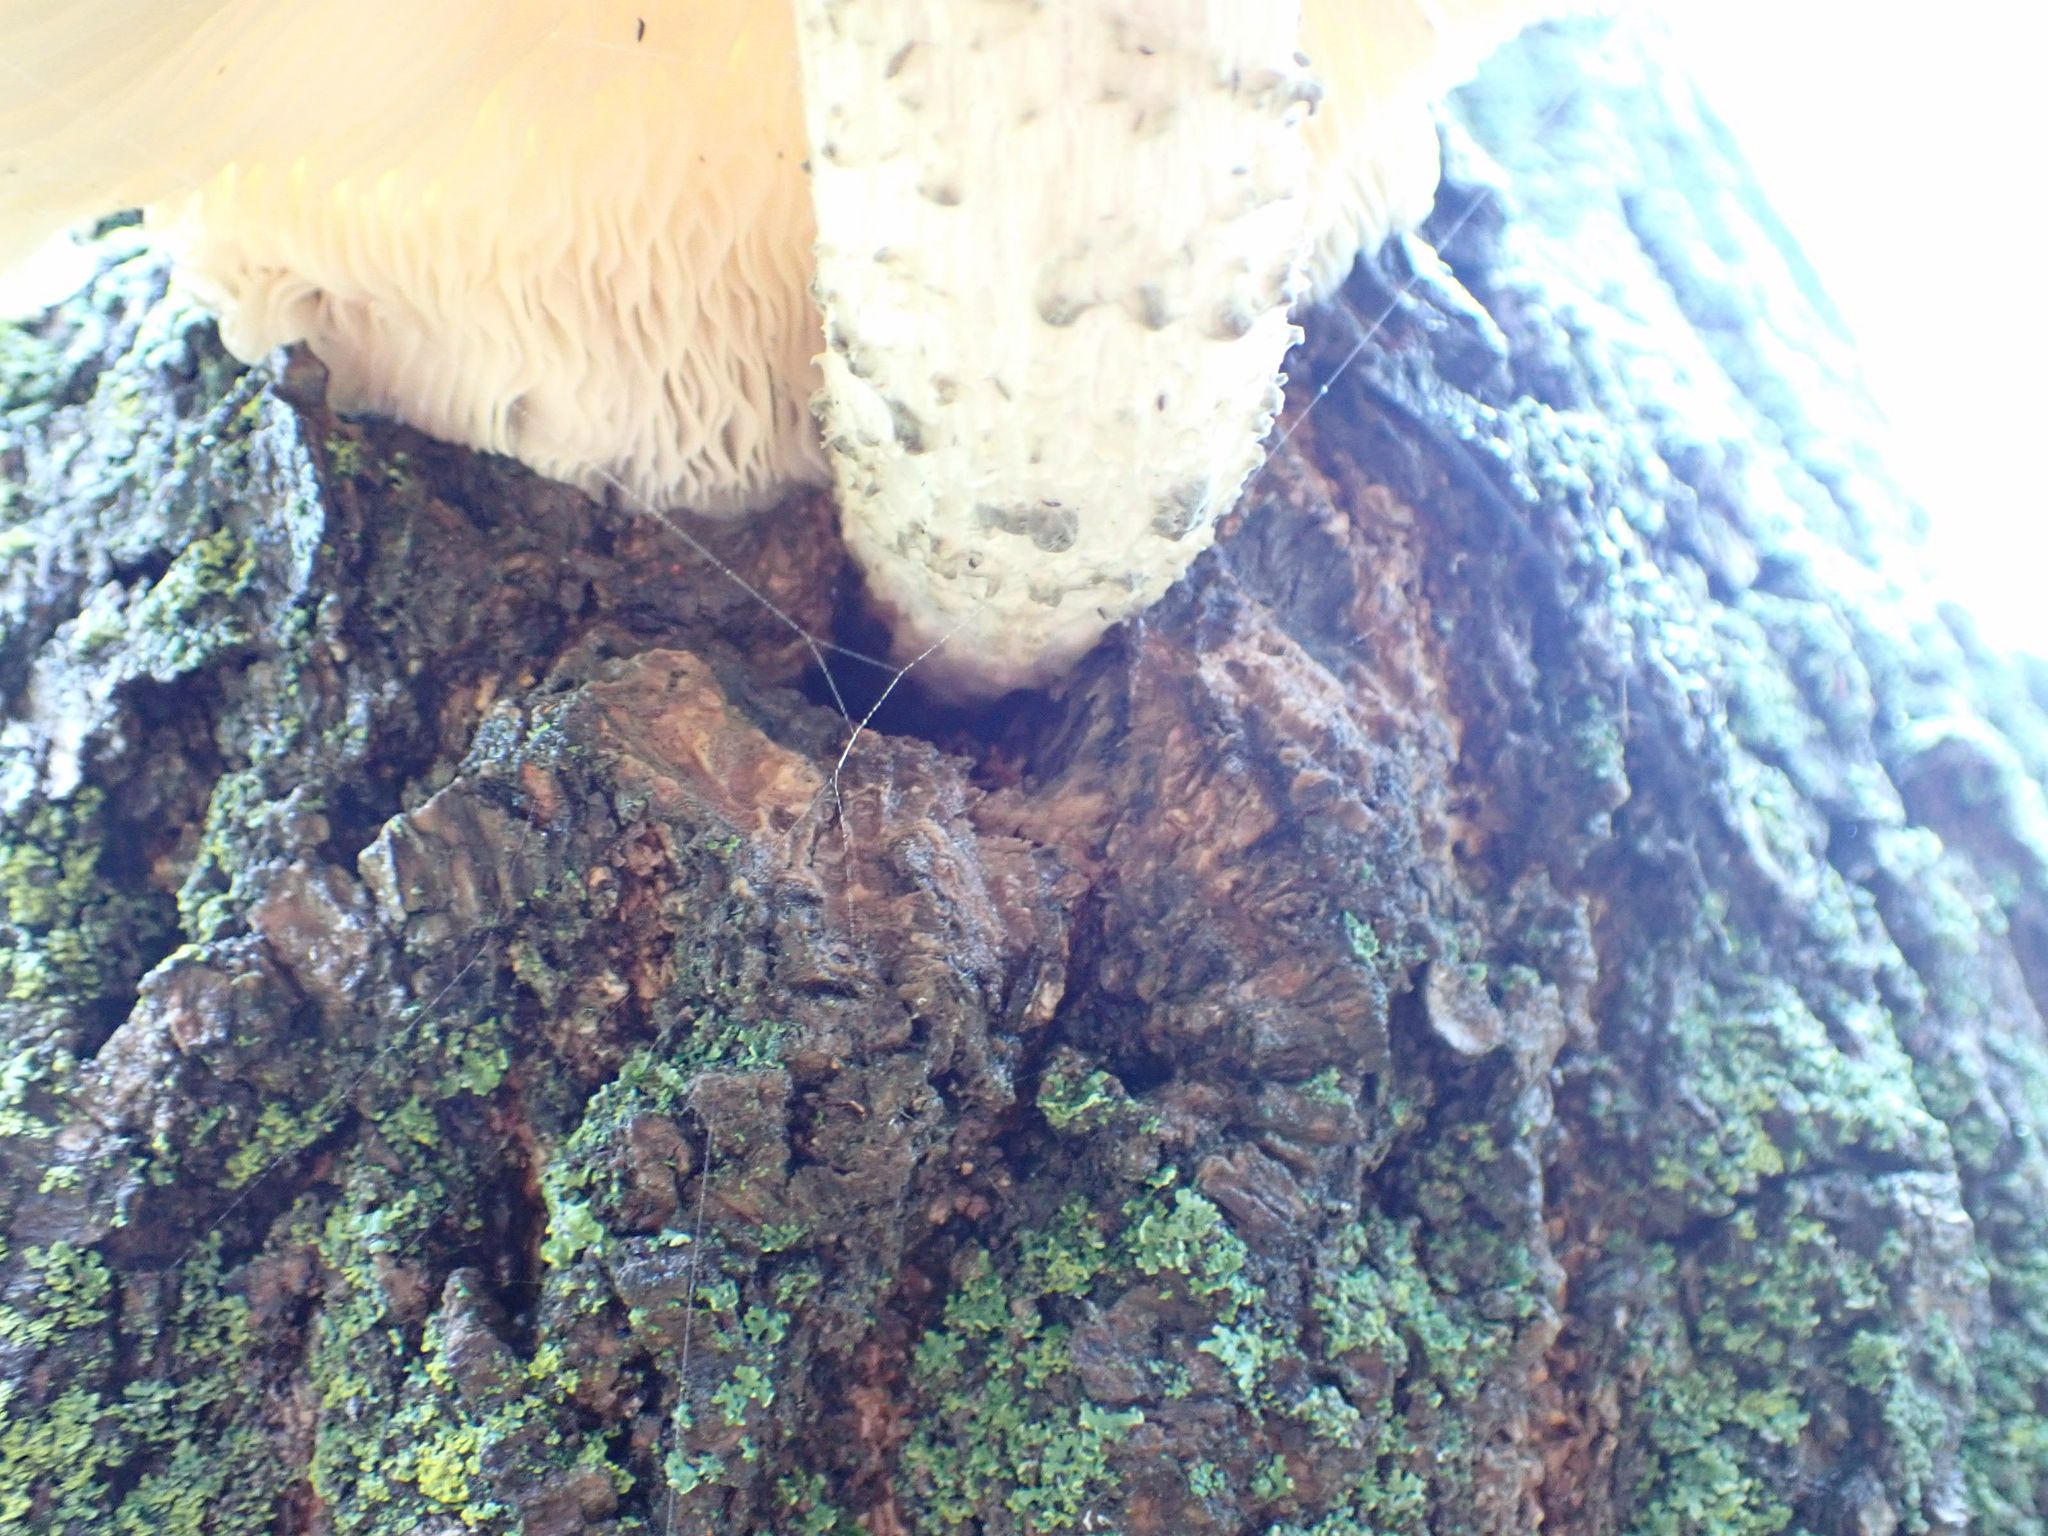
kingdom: Fungi
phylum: Basidiomycota
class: Agaricomycetes
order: Agaricales
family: Lyophyllaceae
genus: Hypsizygus
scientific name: Hypsizygus ulmarius
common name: Elm leech
